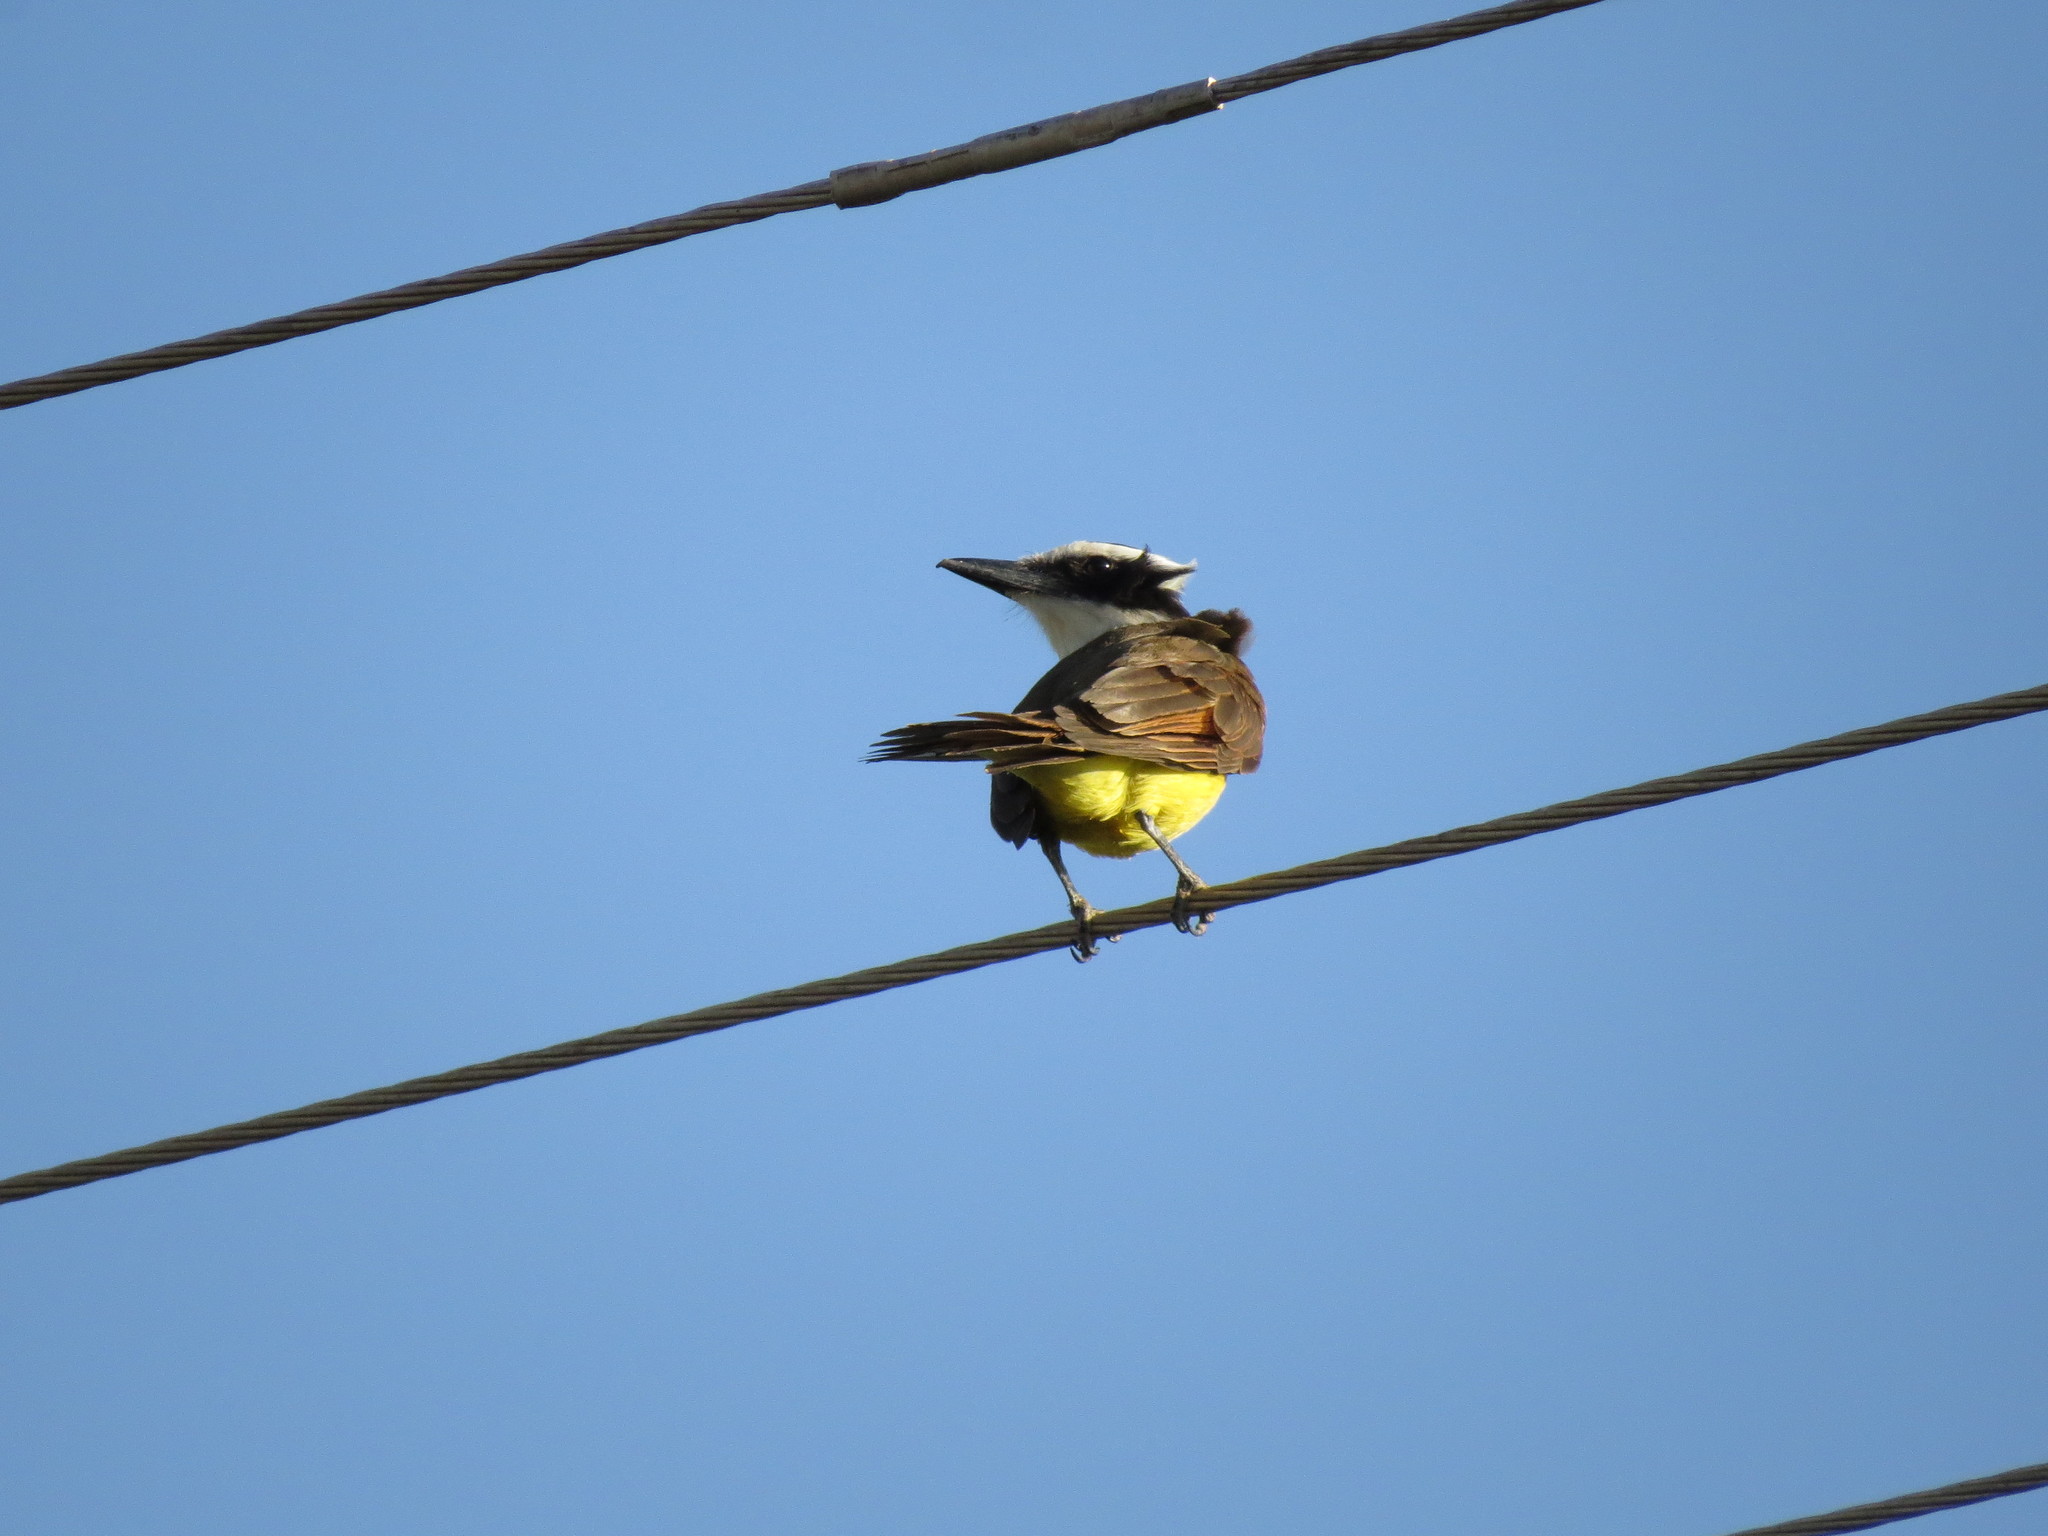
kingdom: Animalia
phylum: Chordata
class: Aves
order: Passeriformes
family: Tyrannidae
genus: Pitangus
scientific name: Pitangus sulphuratus
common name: Great kiskadee
